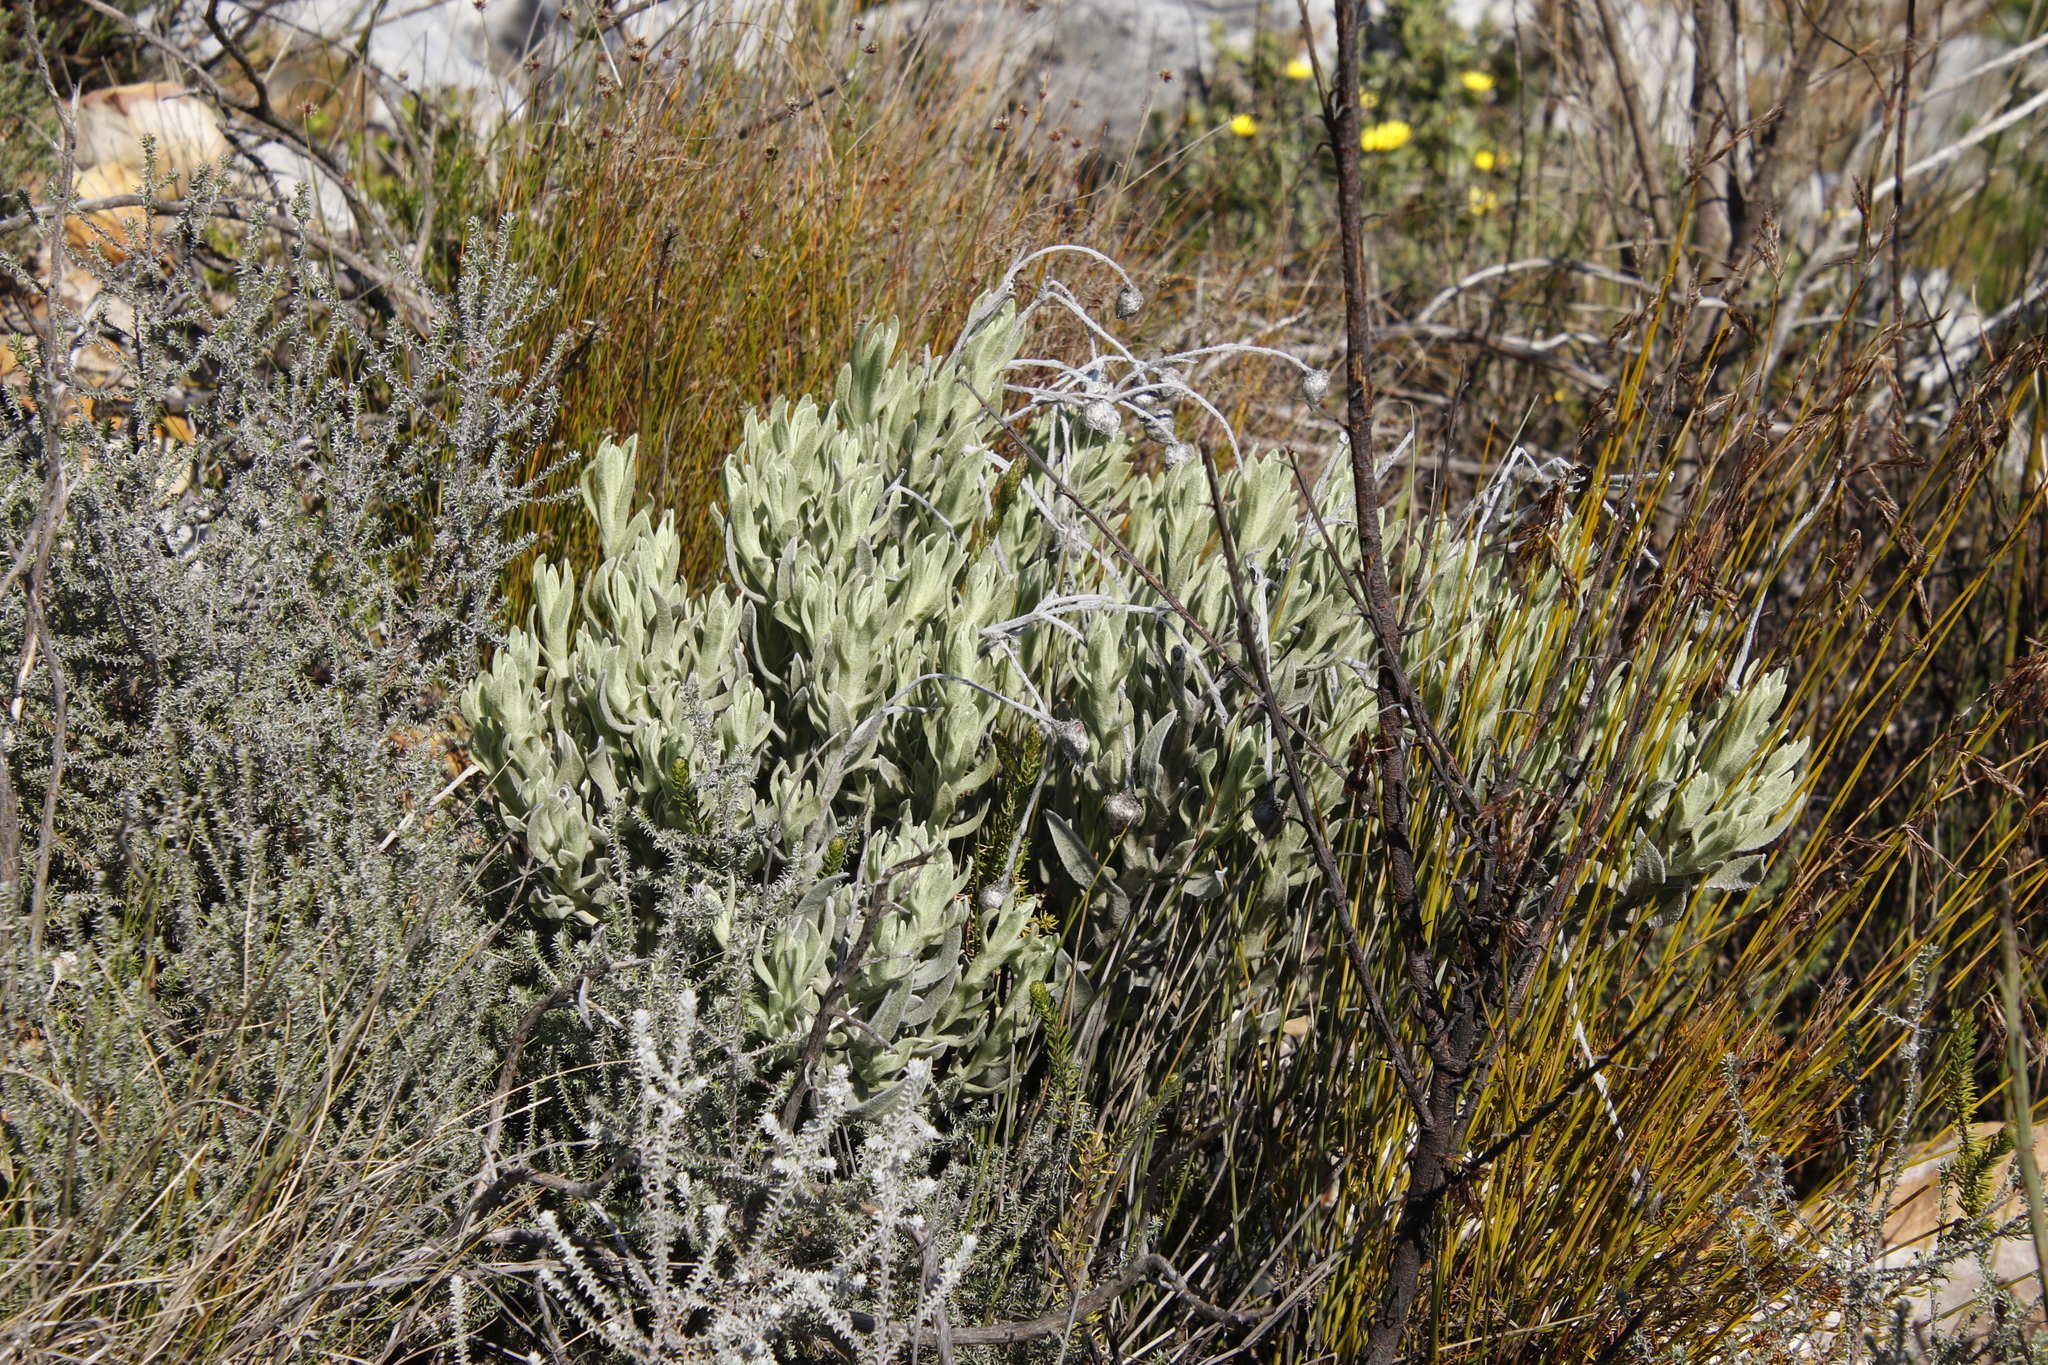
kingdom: Plantae
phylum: Tracheophyta
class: Magnoliopsida
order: Asterales
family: Asteraceae
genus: Syncarpha
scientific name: Syncarpha vestita
